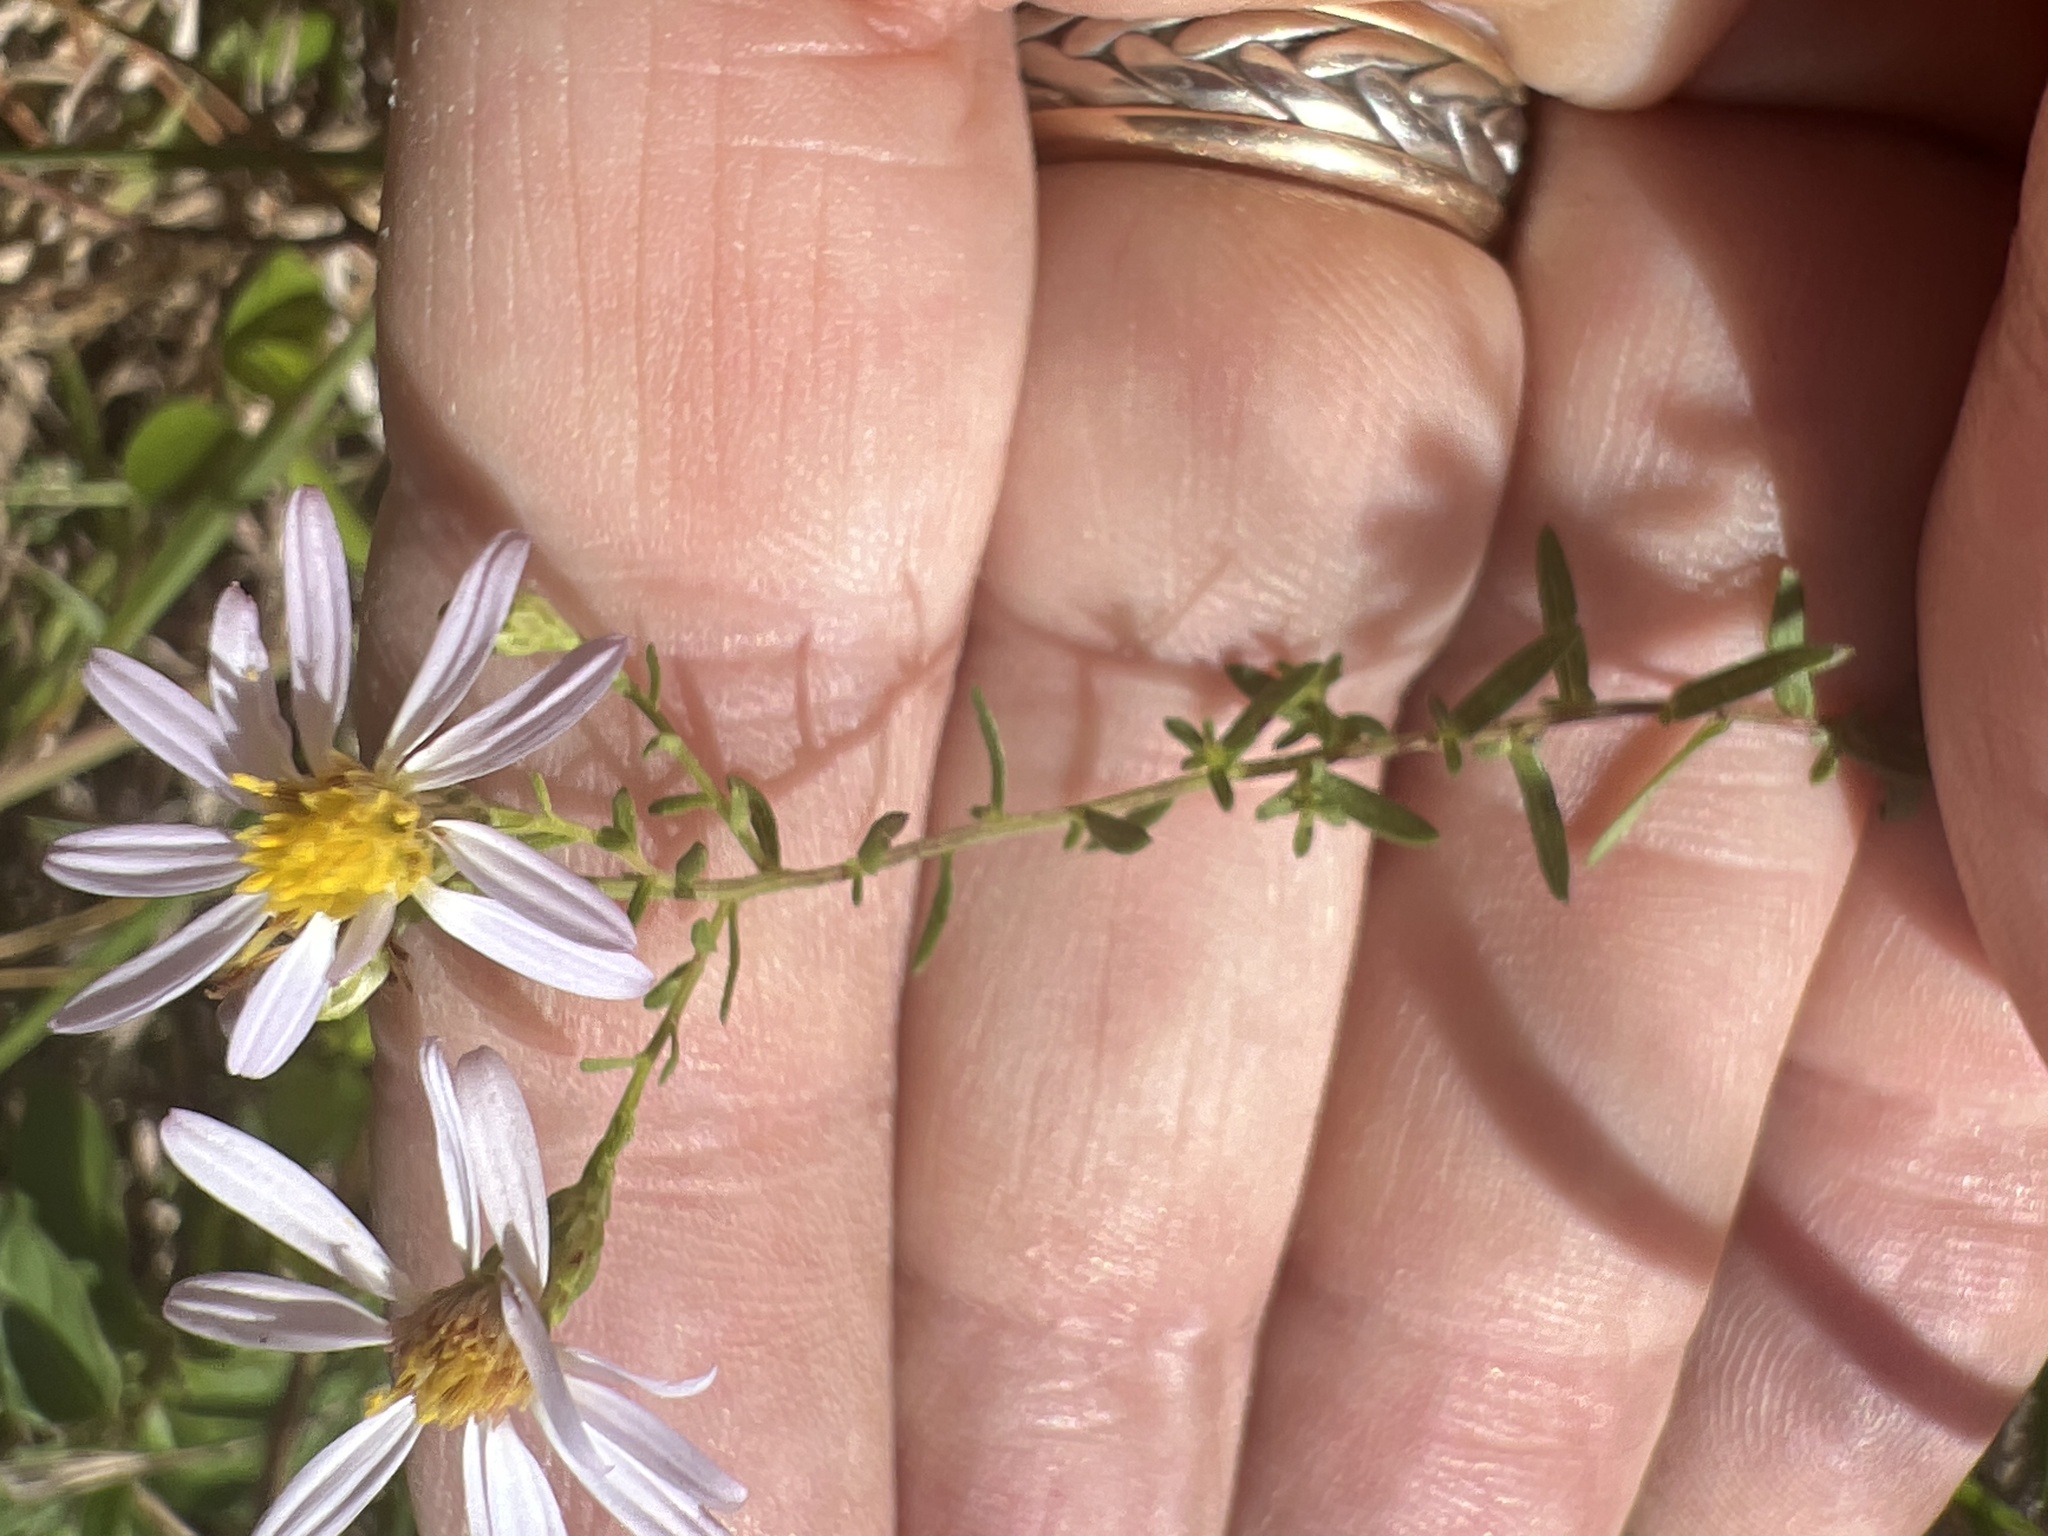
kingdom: Plantae
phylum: Tracheophyta
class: Magnoliopsida
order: Asterales
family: Asteraceae
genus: Symphyotrichum
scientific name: Symphyotrichum dumosum
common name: Bushy aster
